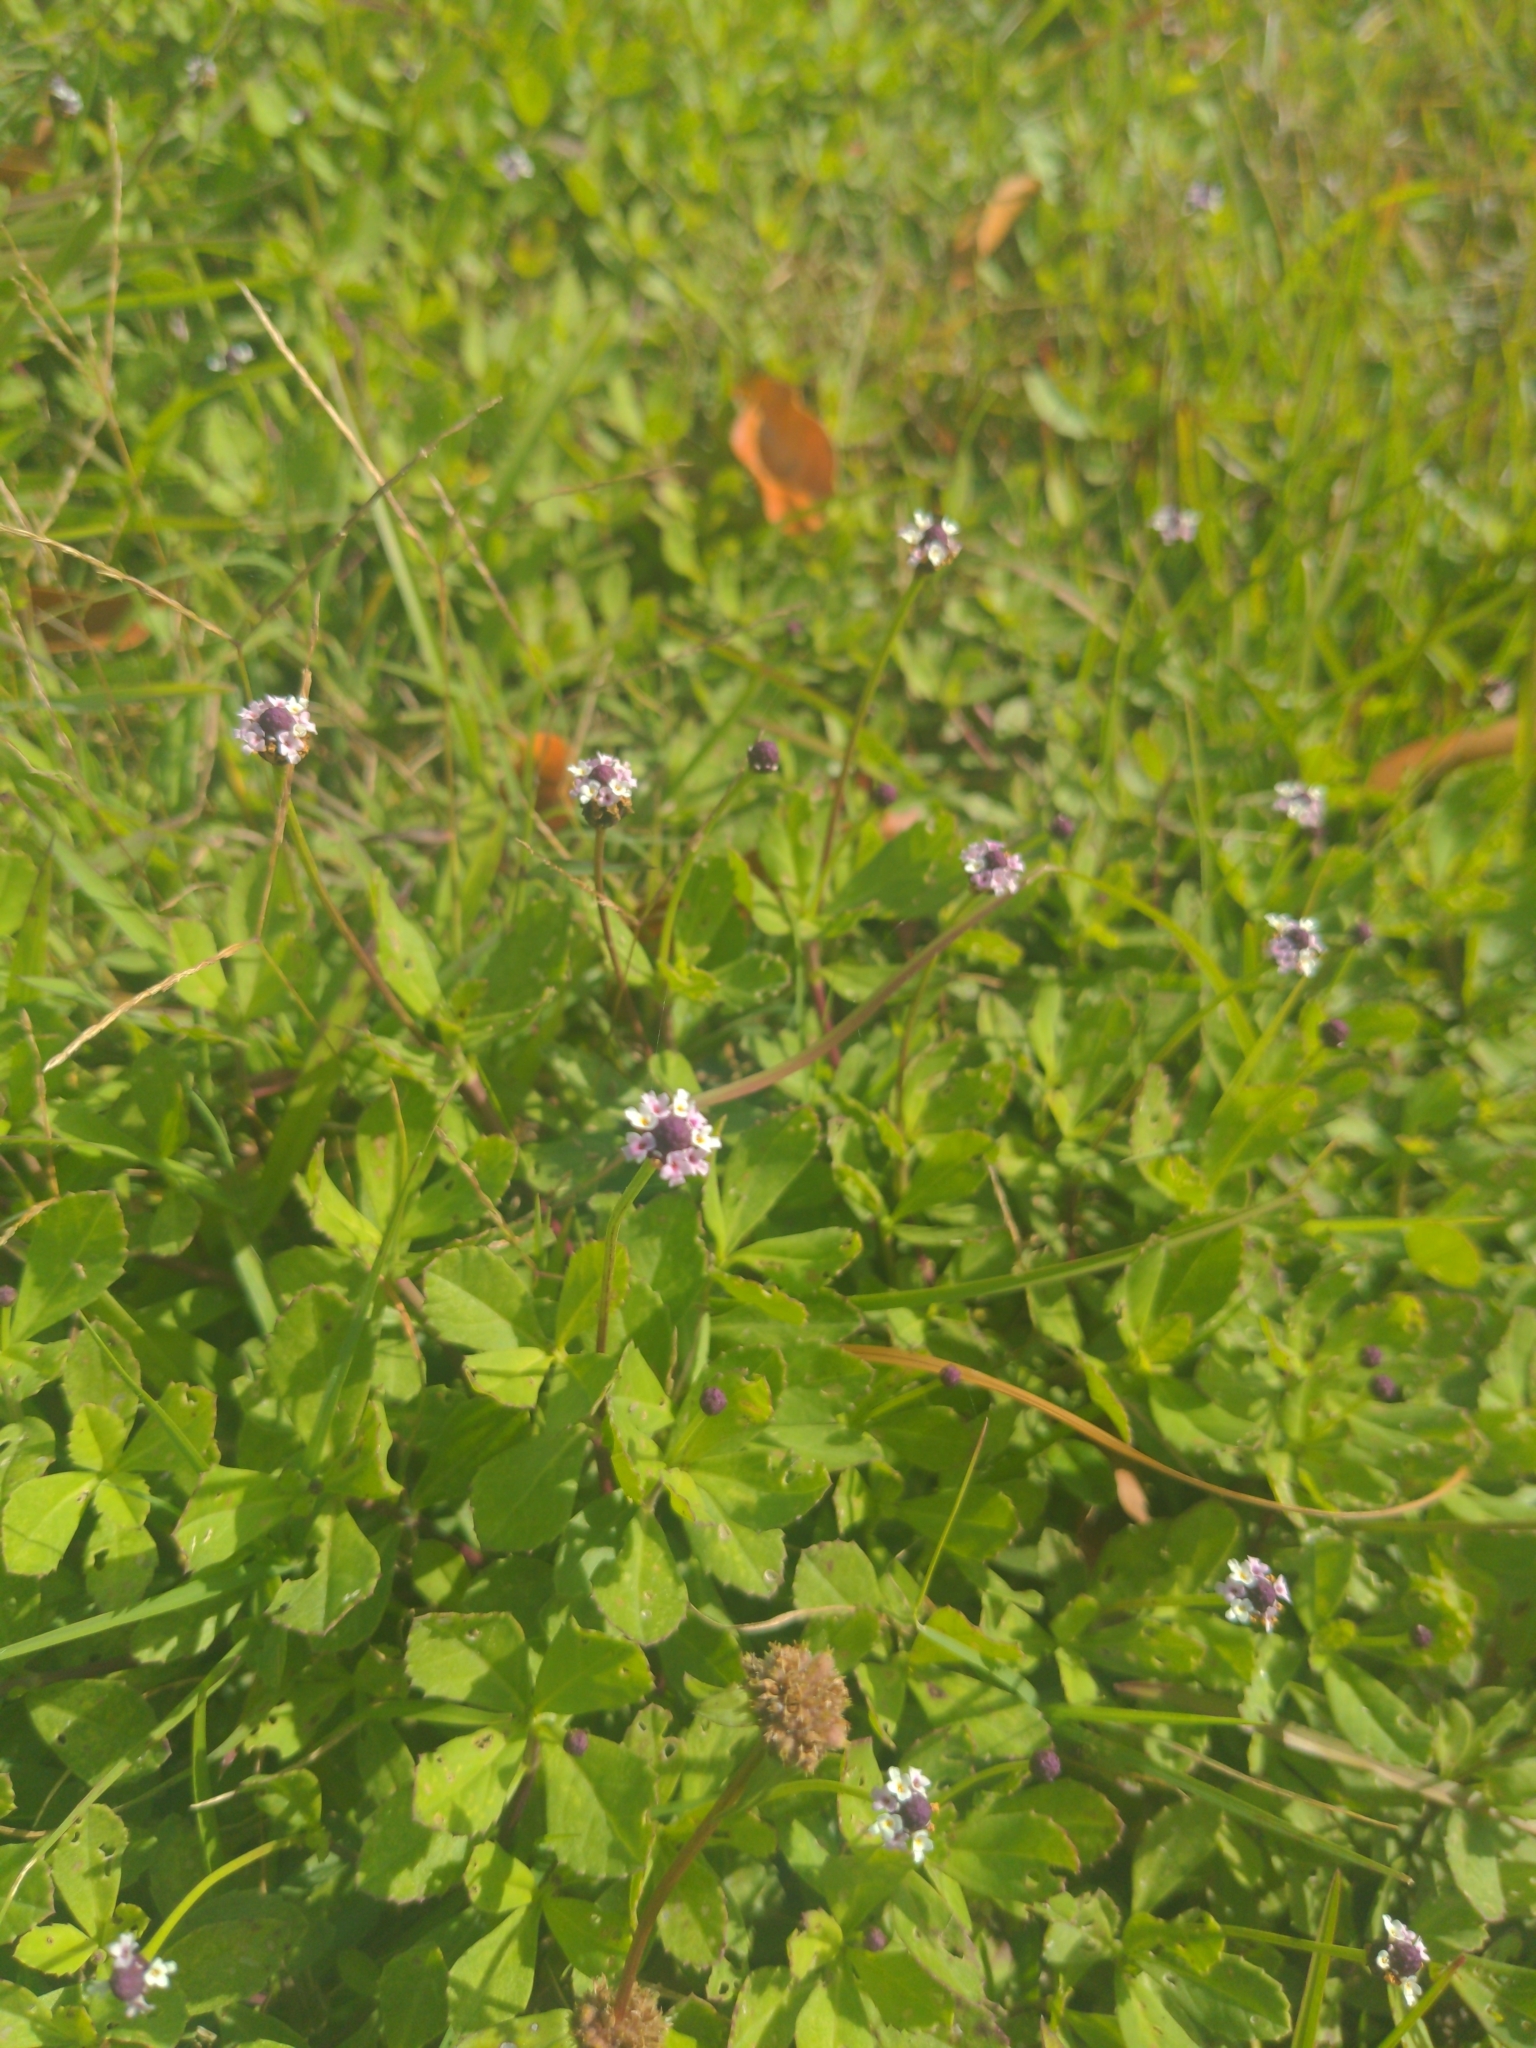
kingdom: Plantae
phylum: Tracheophyta
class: Magnoliopsida
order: Lamiales
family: Verbenaceae
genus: Phyla
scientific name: Phyla nodiflora
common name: Frogfruit
